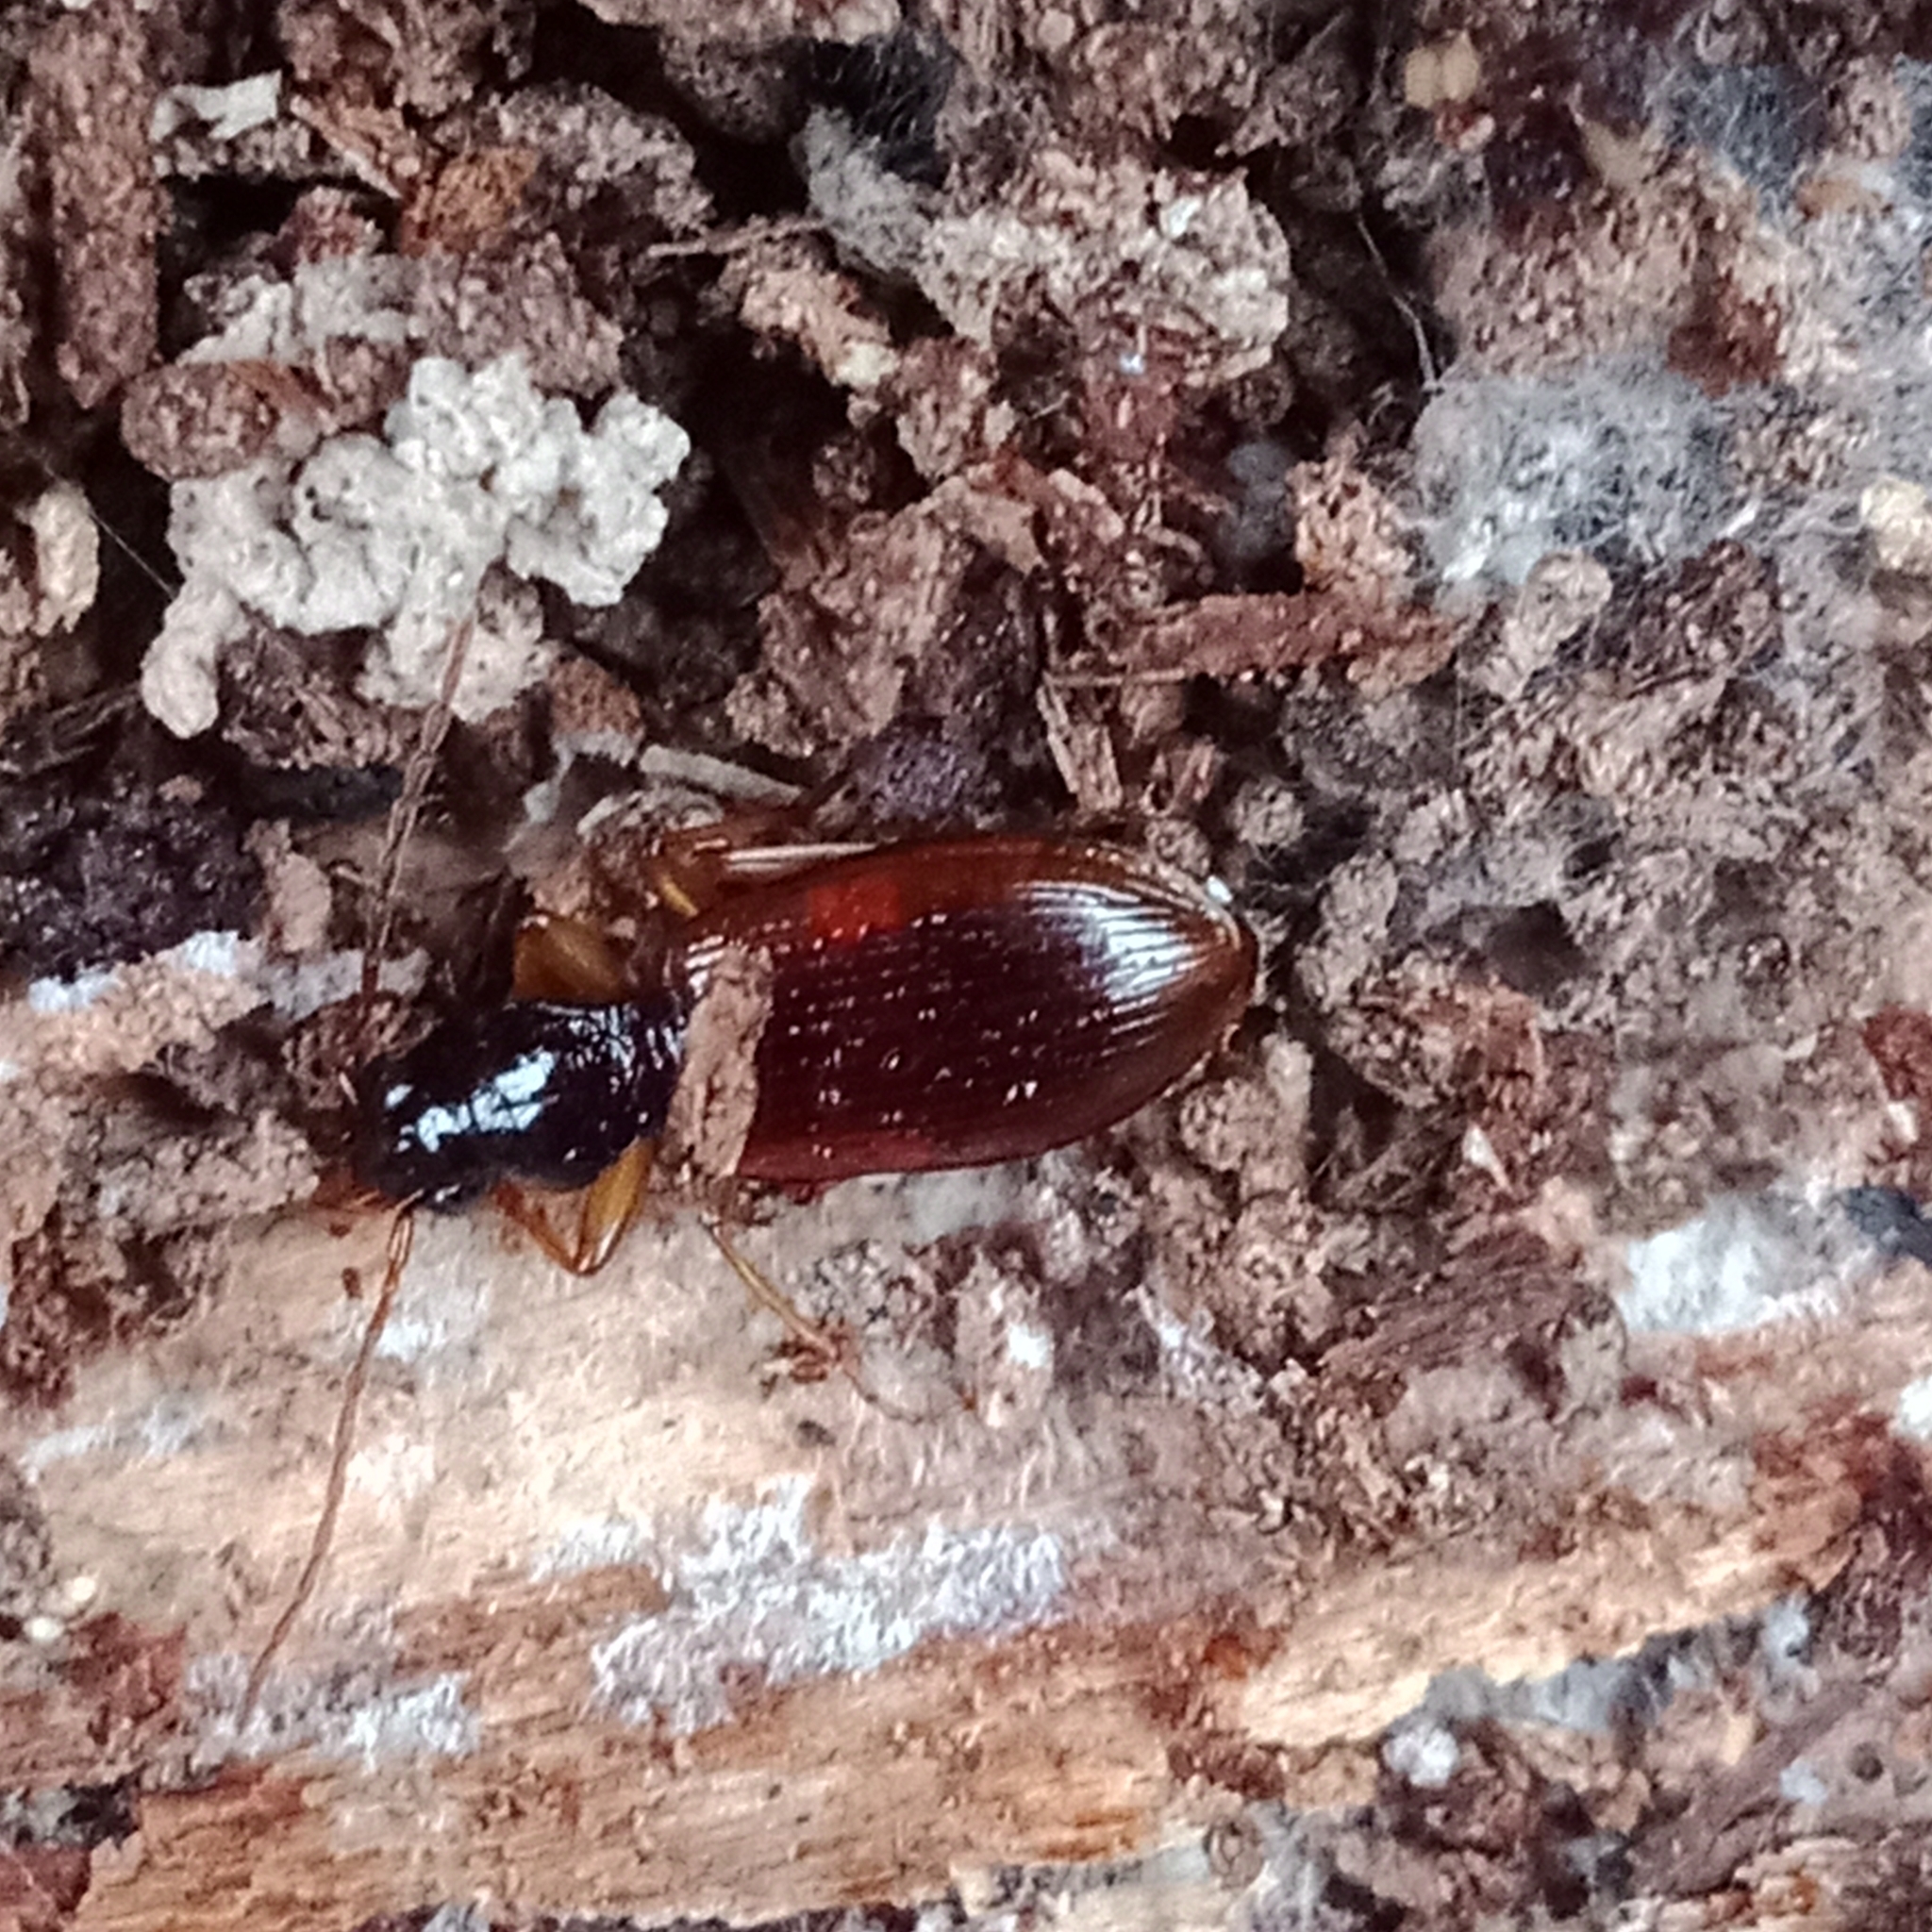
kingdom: Animalia
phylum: Arthropoda
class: Insecta
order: Coleoptera
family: Carabidae
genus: Oxypselaphus
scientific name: Oxypselaphus obscurus
